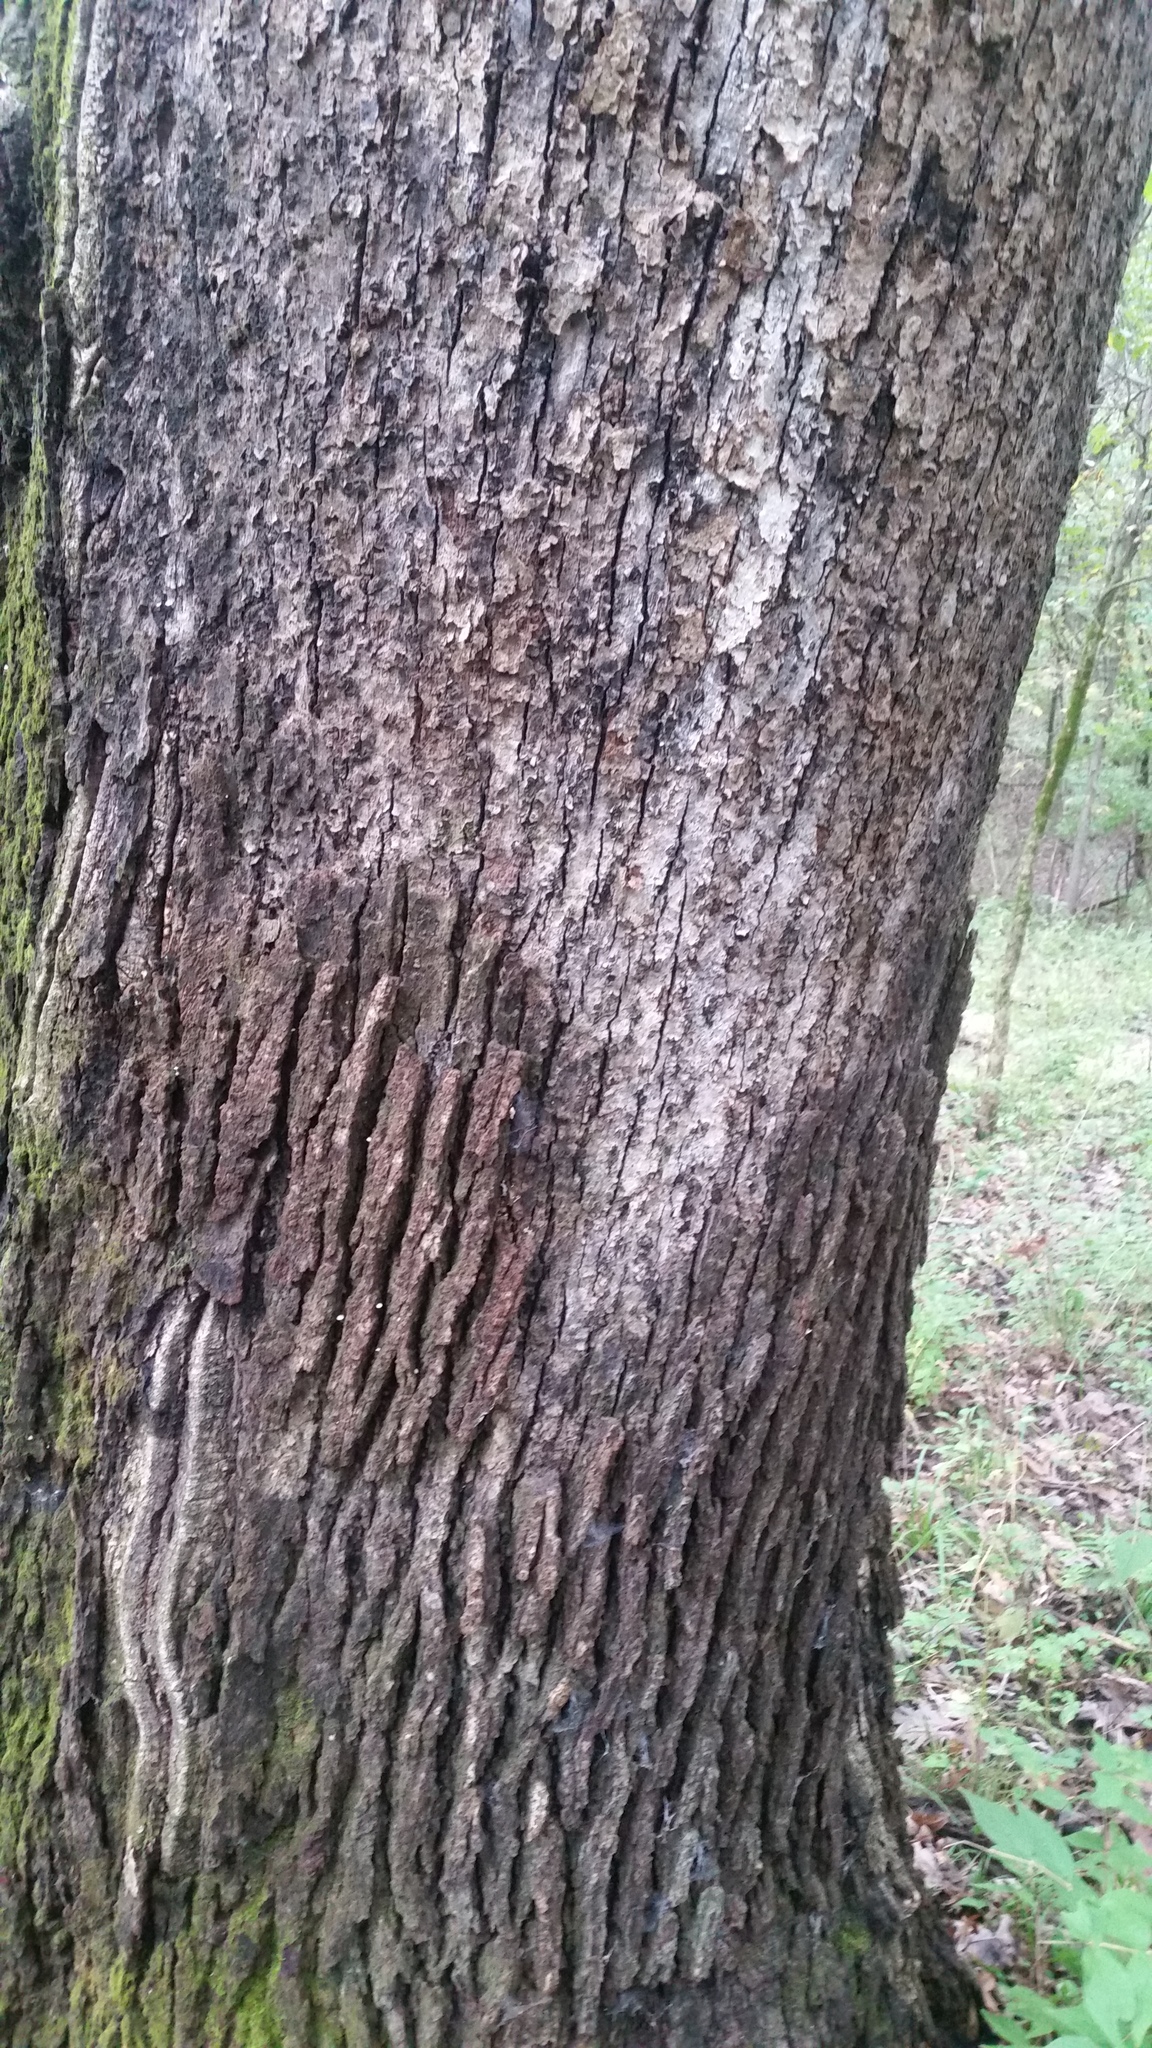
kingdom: Fungi
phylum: Basidiomycota
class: Agaricomycetes
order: Russulales
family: Stereaceae
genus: Acanthophysium
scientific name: Acanthophysium oakesii
